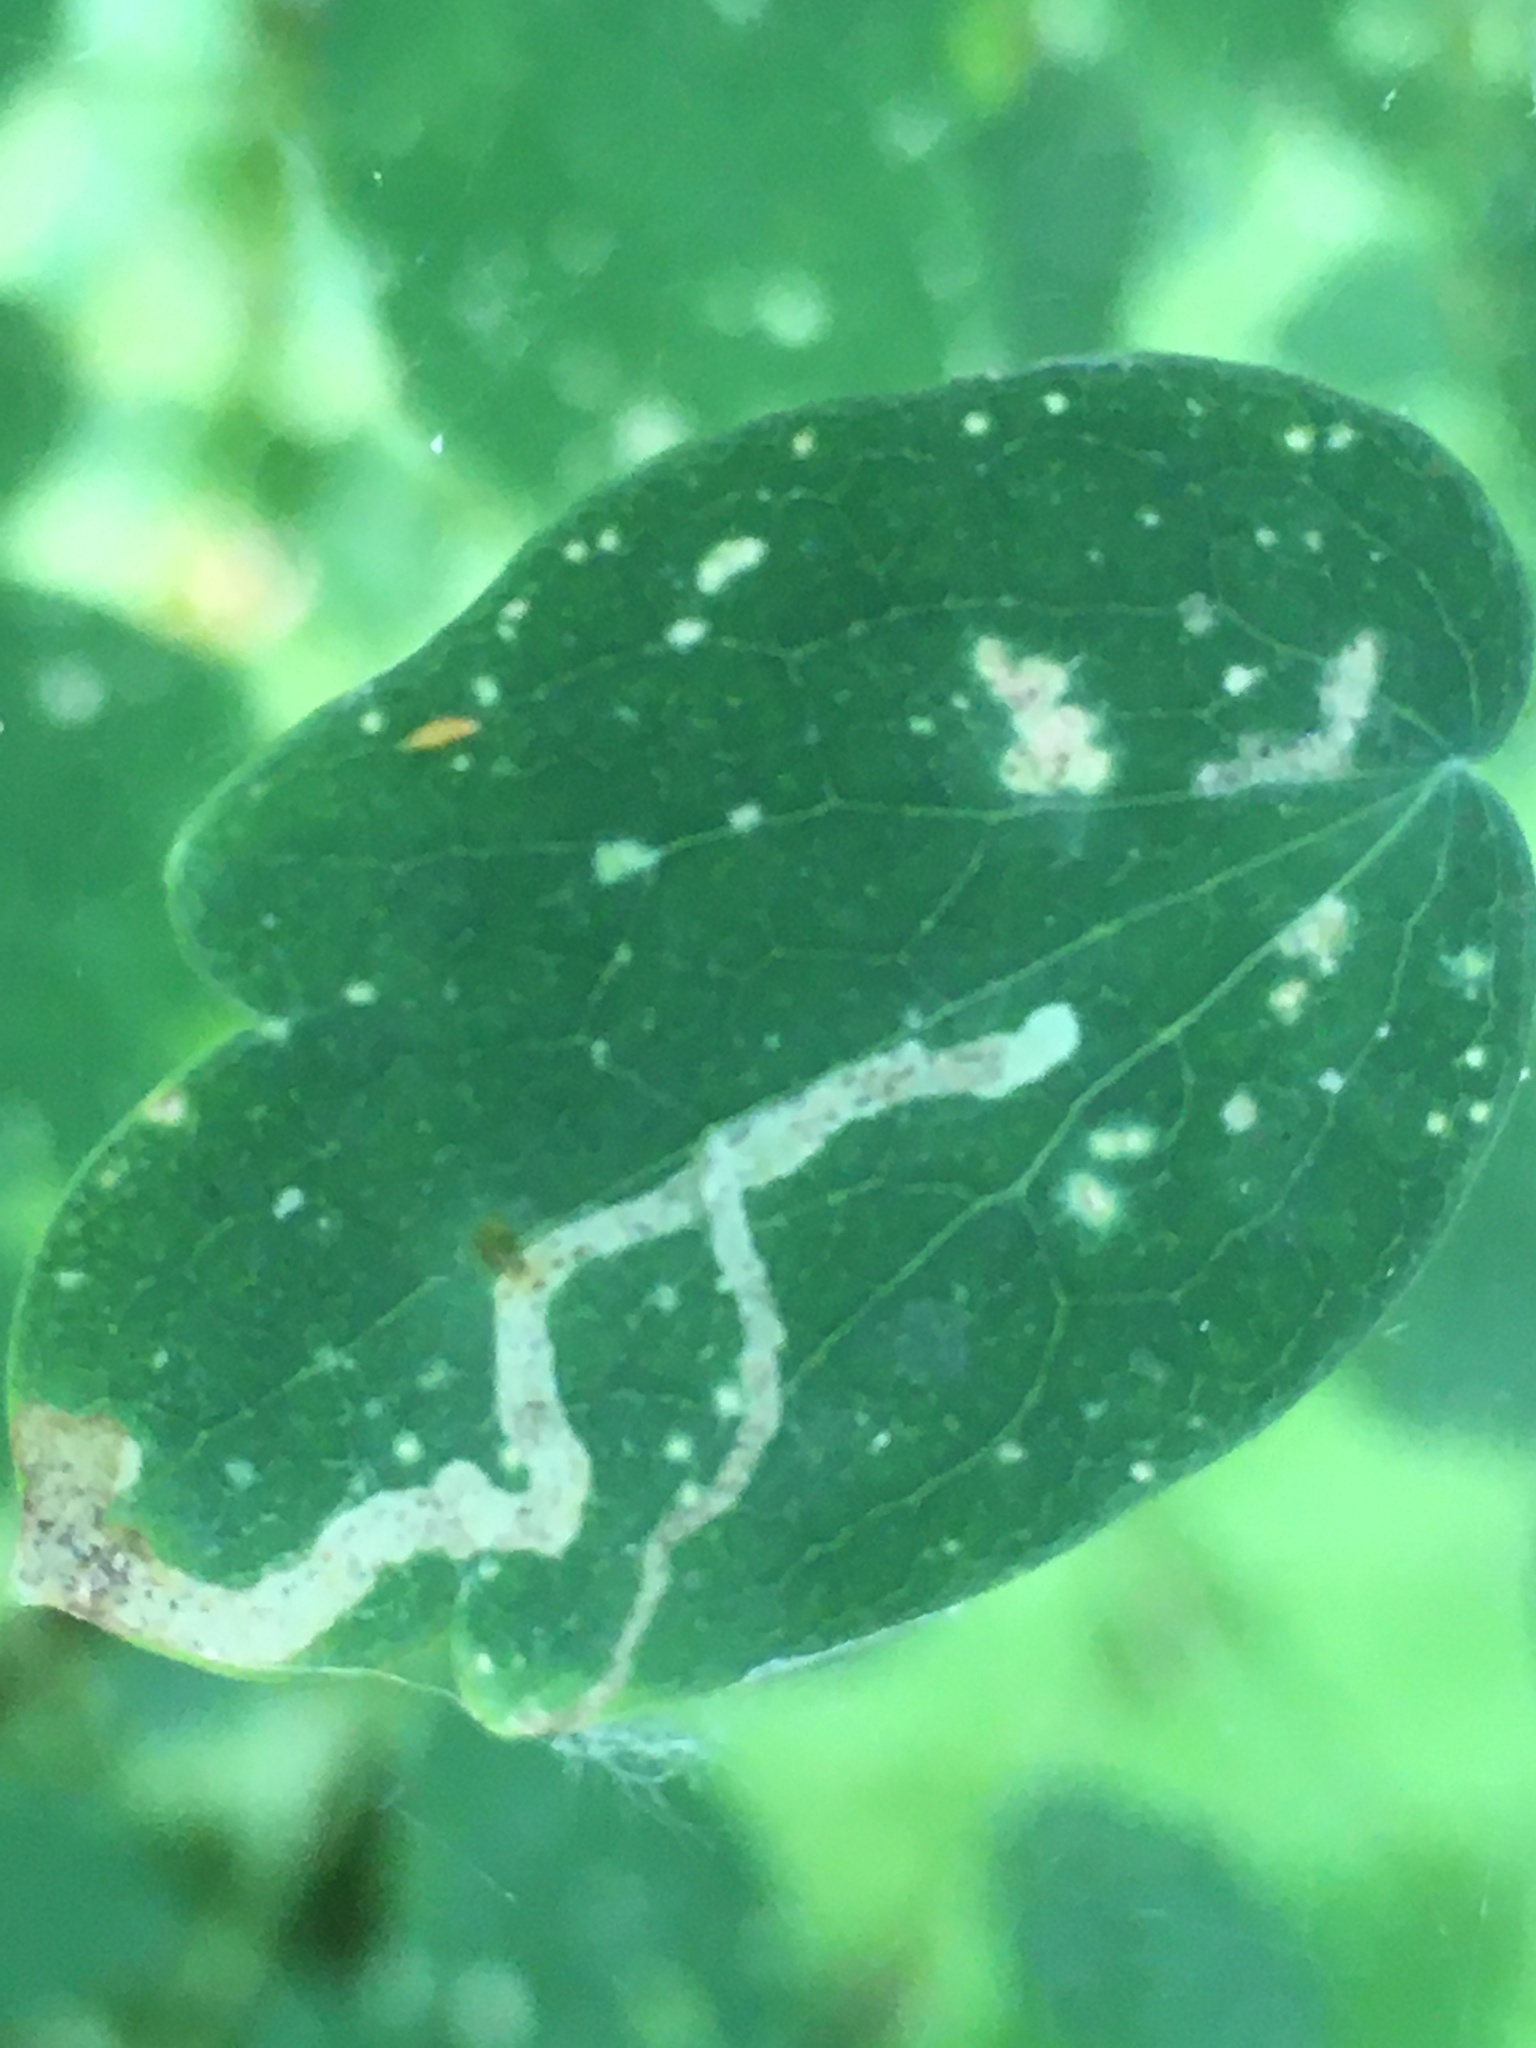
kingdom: Animalia
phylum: Arthropoda
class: Insecta
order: Diptera
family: Agromyzidae
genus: Phytomyza
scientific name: Phytomyza
